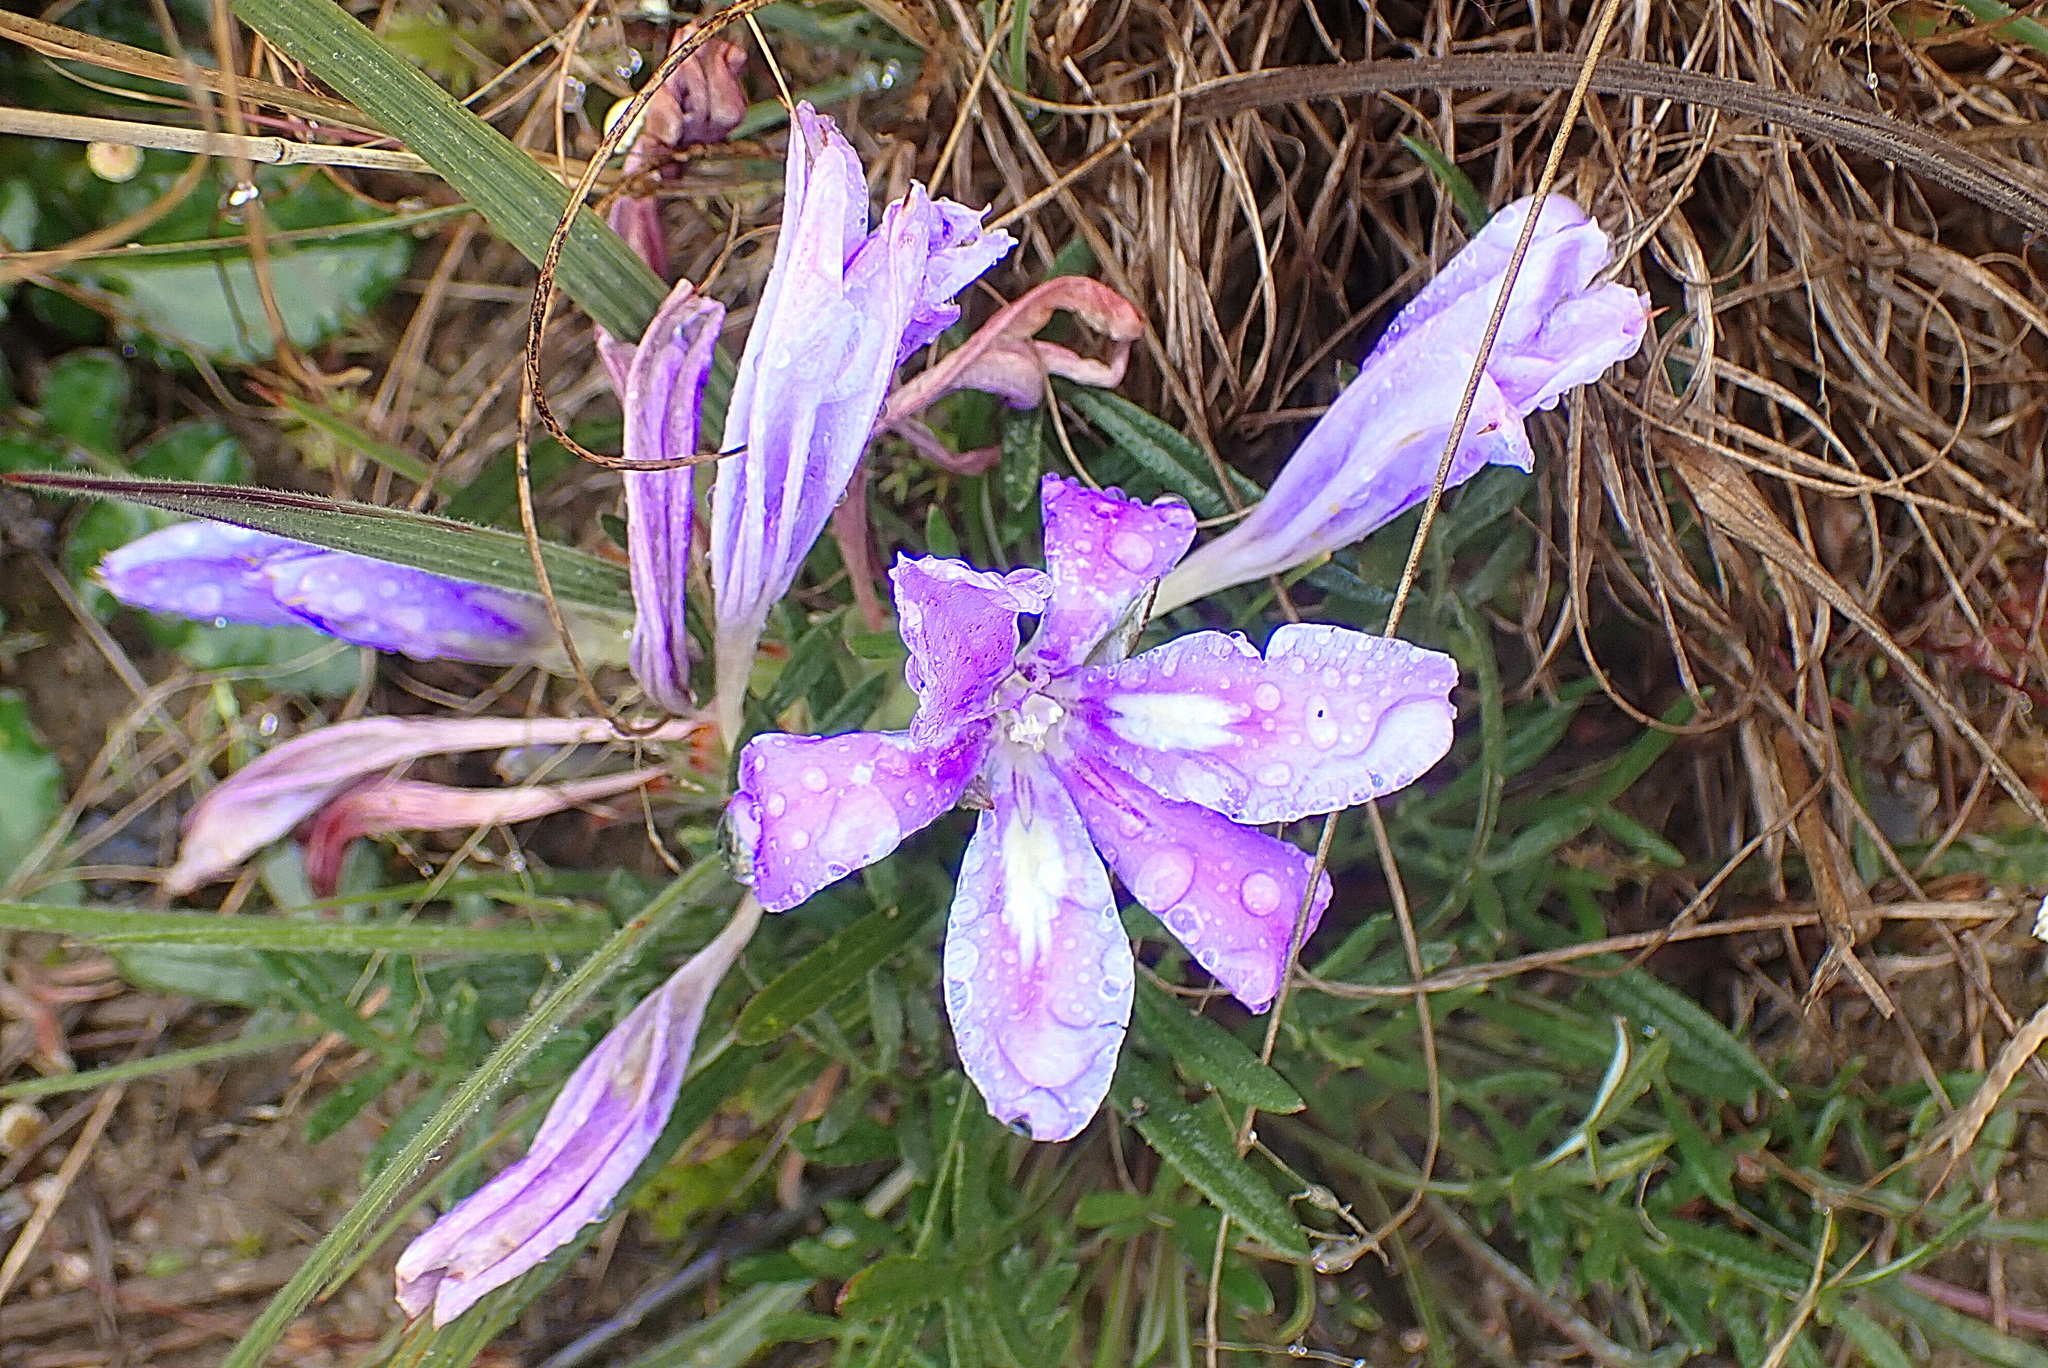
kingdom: Plantae
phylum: Tracheophyta
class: Liliopsida
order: Asparagales
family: Iridaceae
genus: Babiana
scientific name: Babiana sambucina
